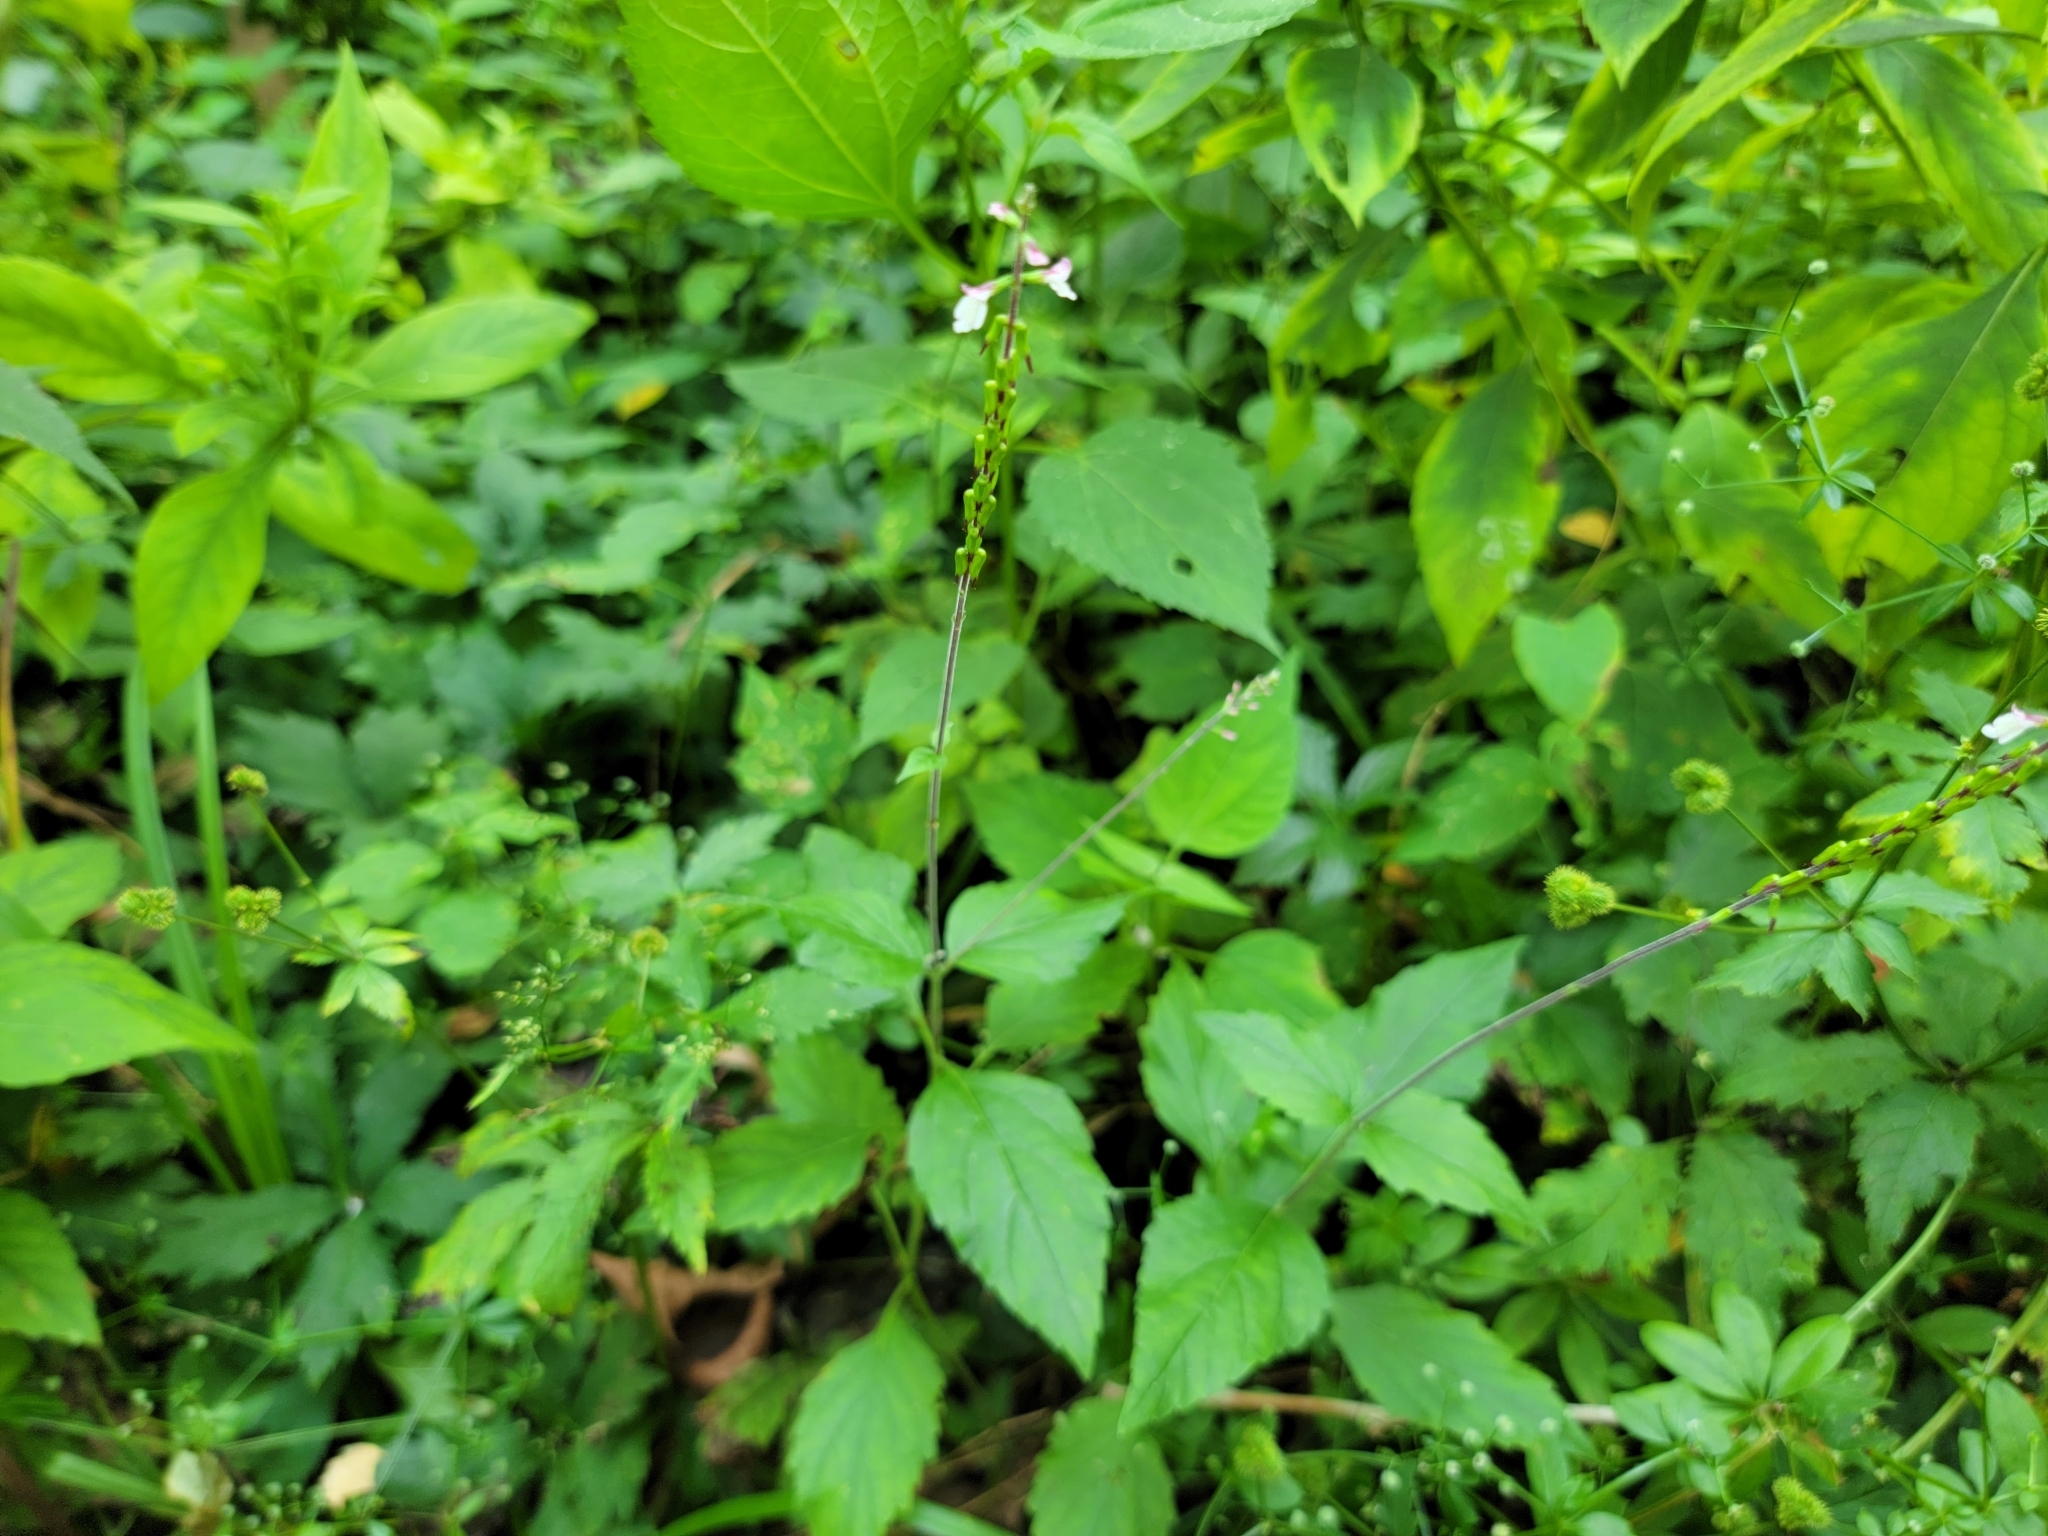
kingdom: Plantae
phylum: Tracheophyta
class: Magnoliopsida
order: Lamiales
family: Phrymaceae
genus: Phryma
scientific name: Phryma leptostachya
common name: American lopseed
